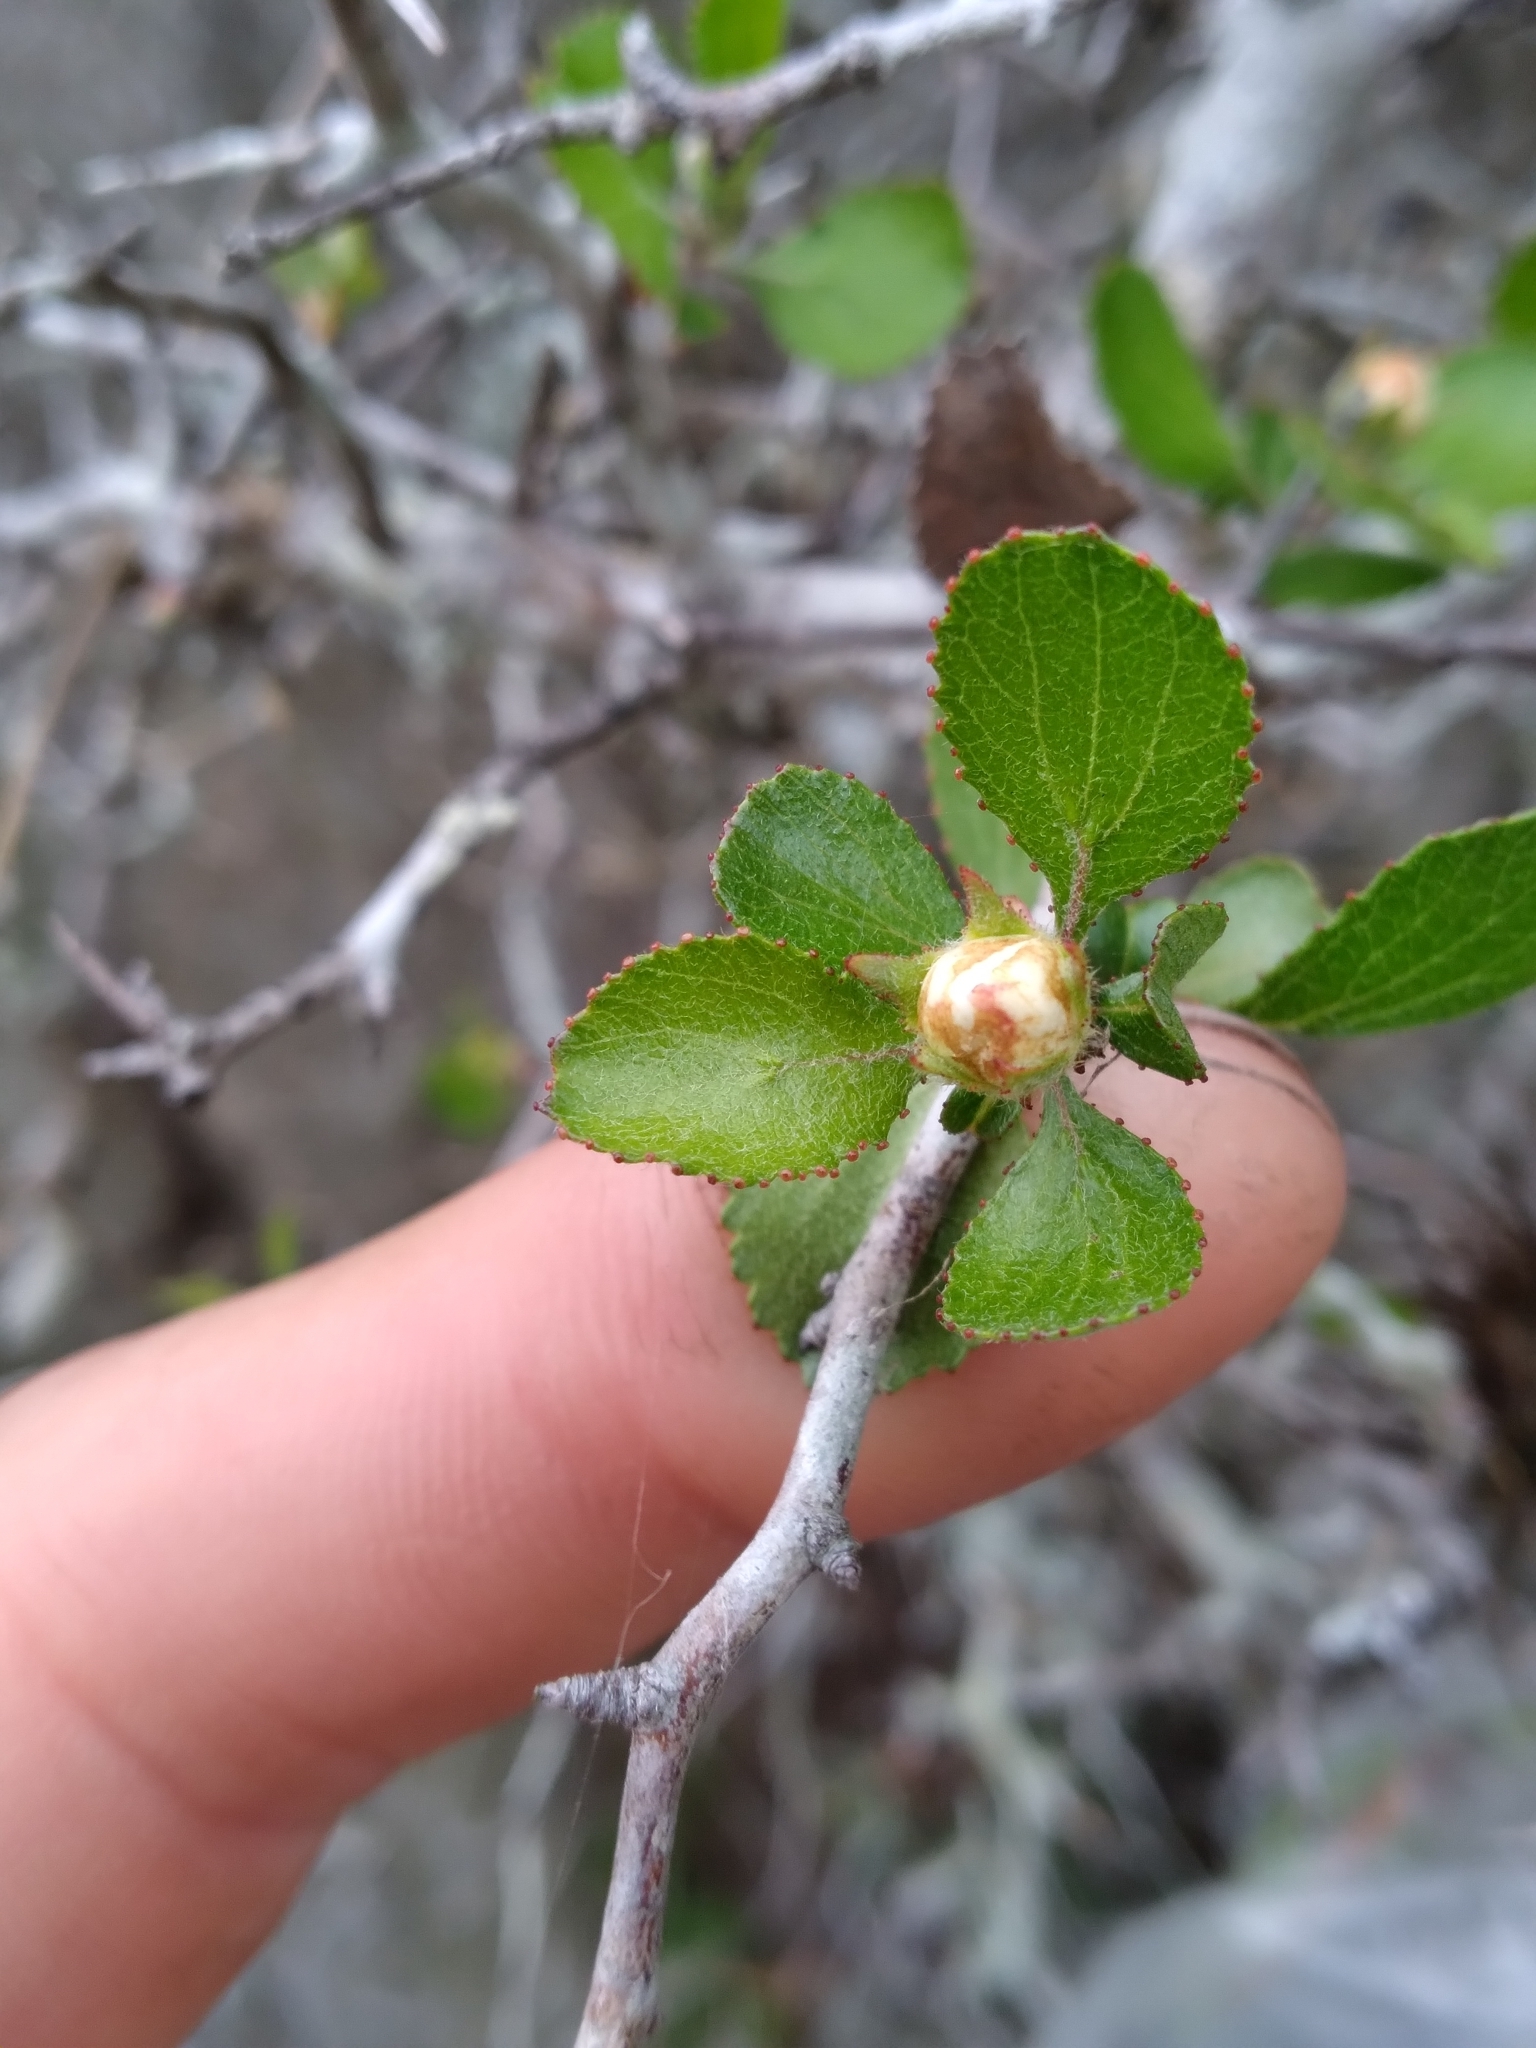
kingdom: Plantae
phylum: Tracheophyta
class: Magnoliopsida
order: Rosales
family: Rosaceae
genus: Crataegus
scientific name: Crataegus
